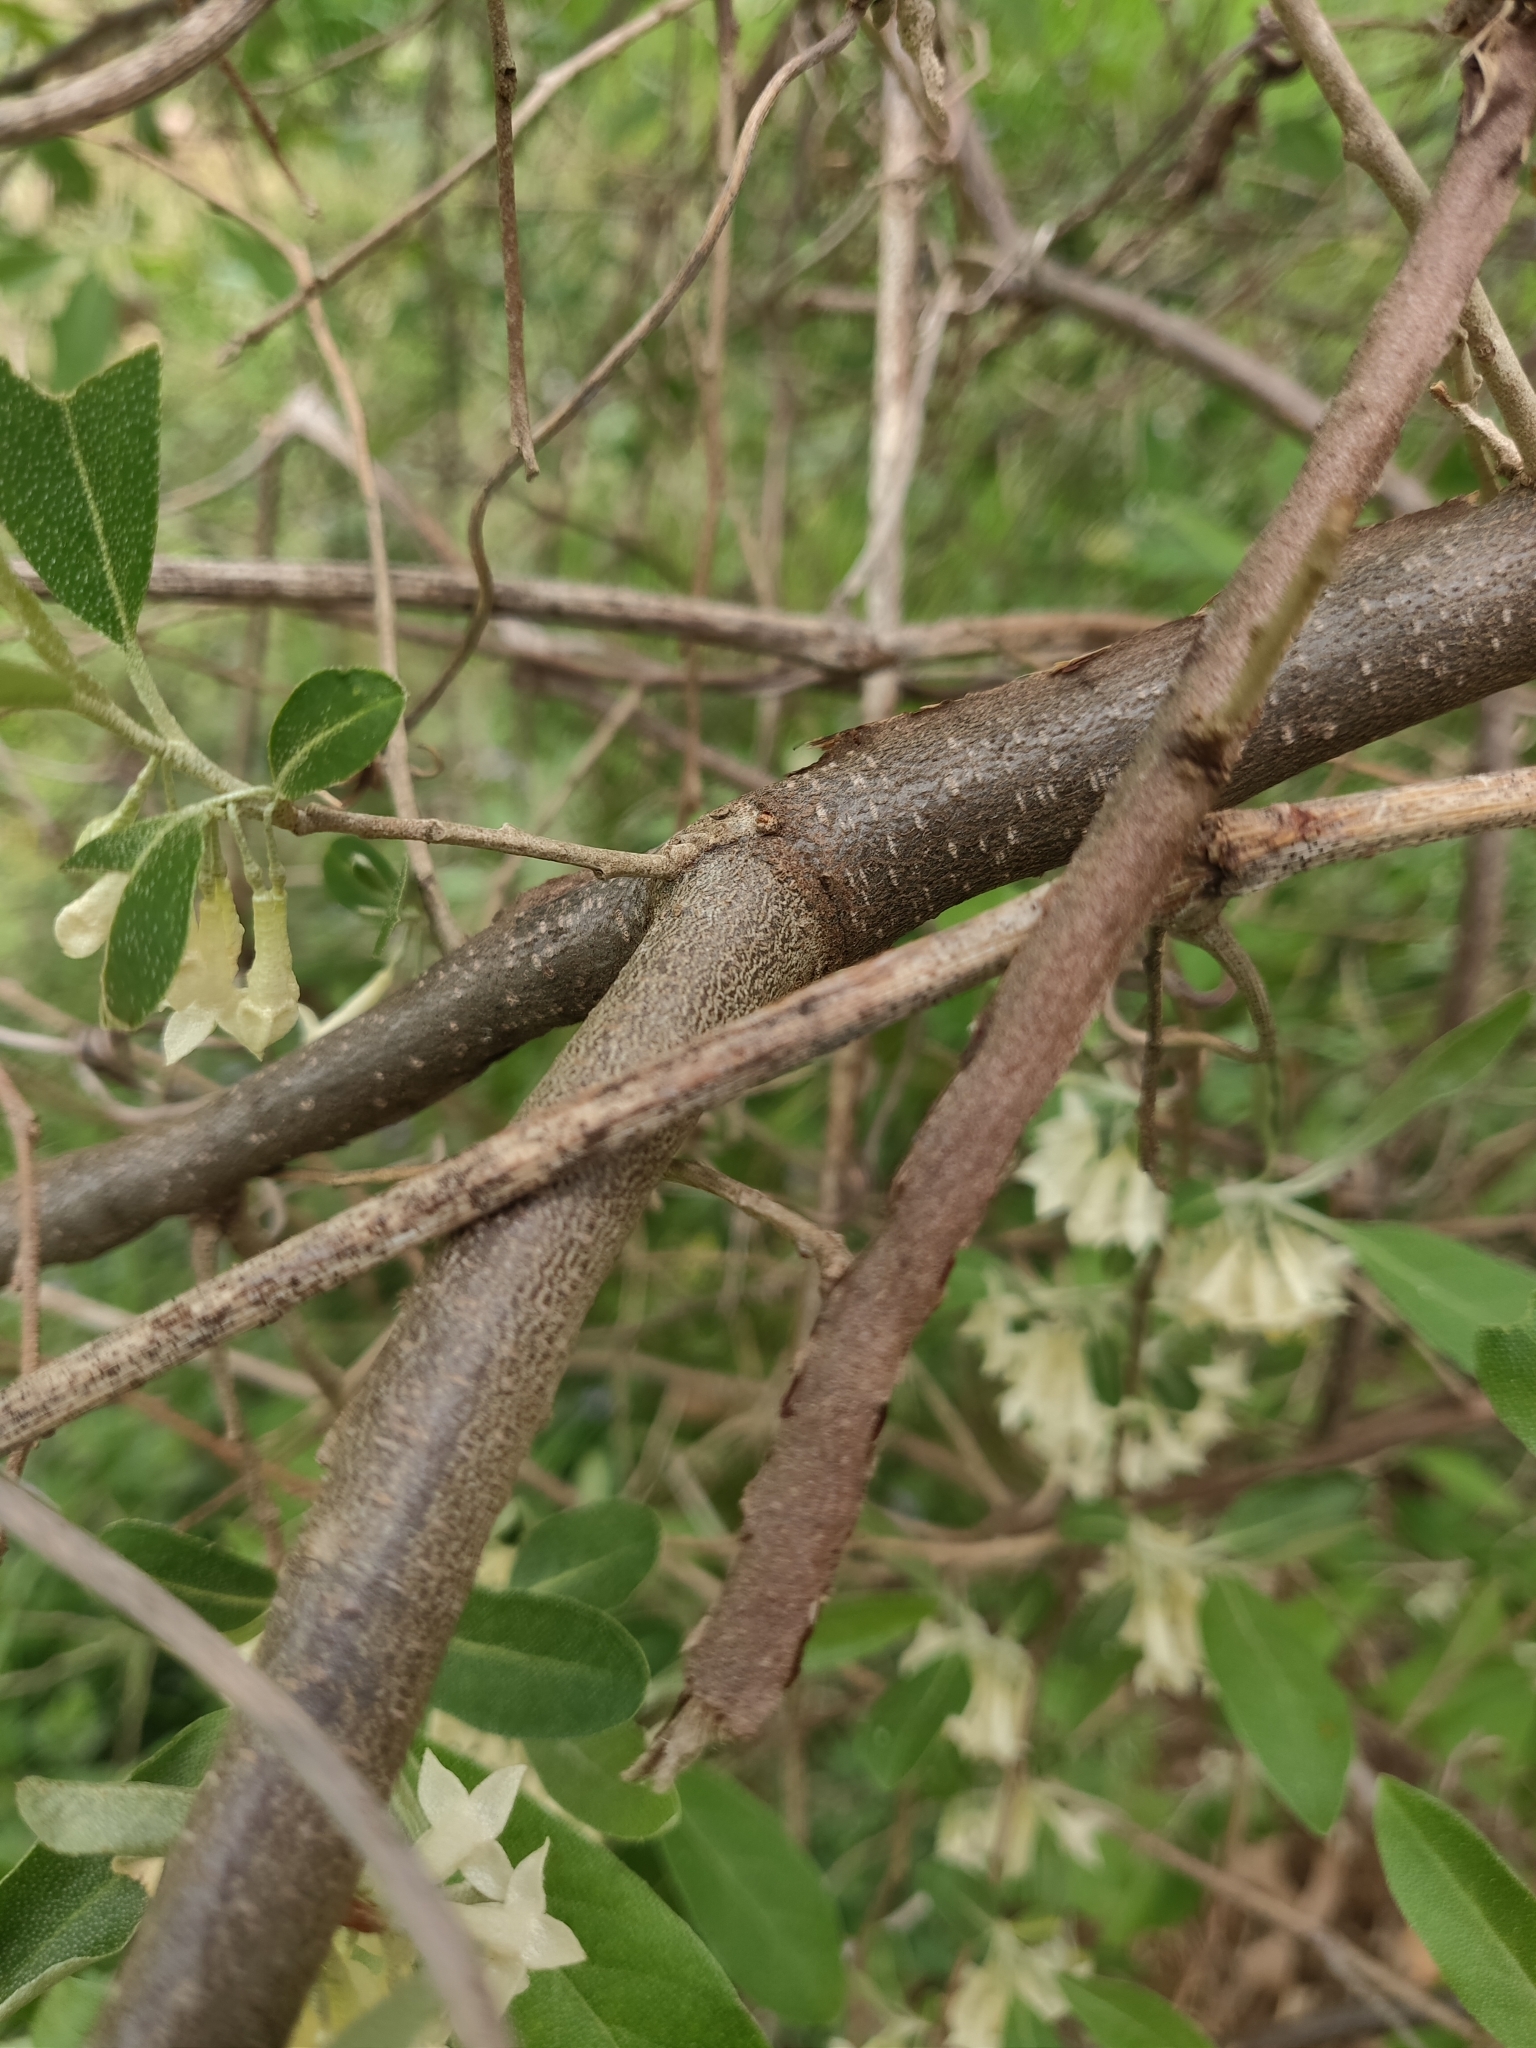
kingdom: Plantae
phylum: Tracheophyta
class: Magnoliopsida
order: Rosales
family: Elaeagnaceae
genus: Elaeagnus
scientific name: Elaeagnus umbellata
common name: Autumn olive
